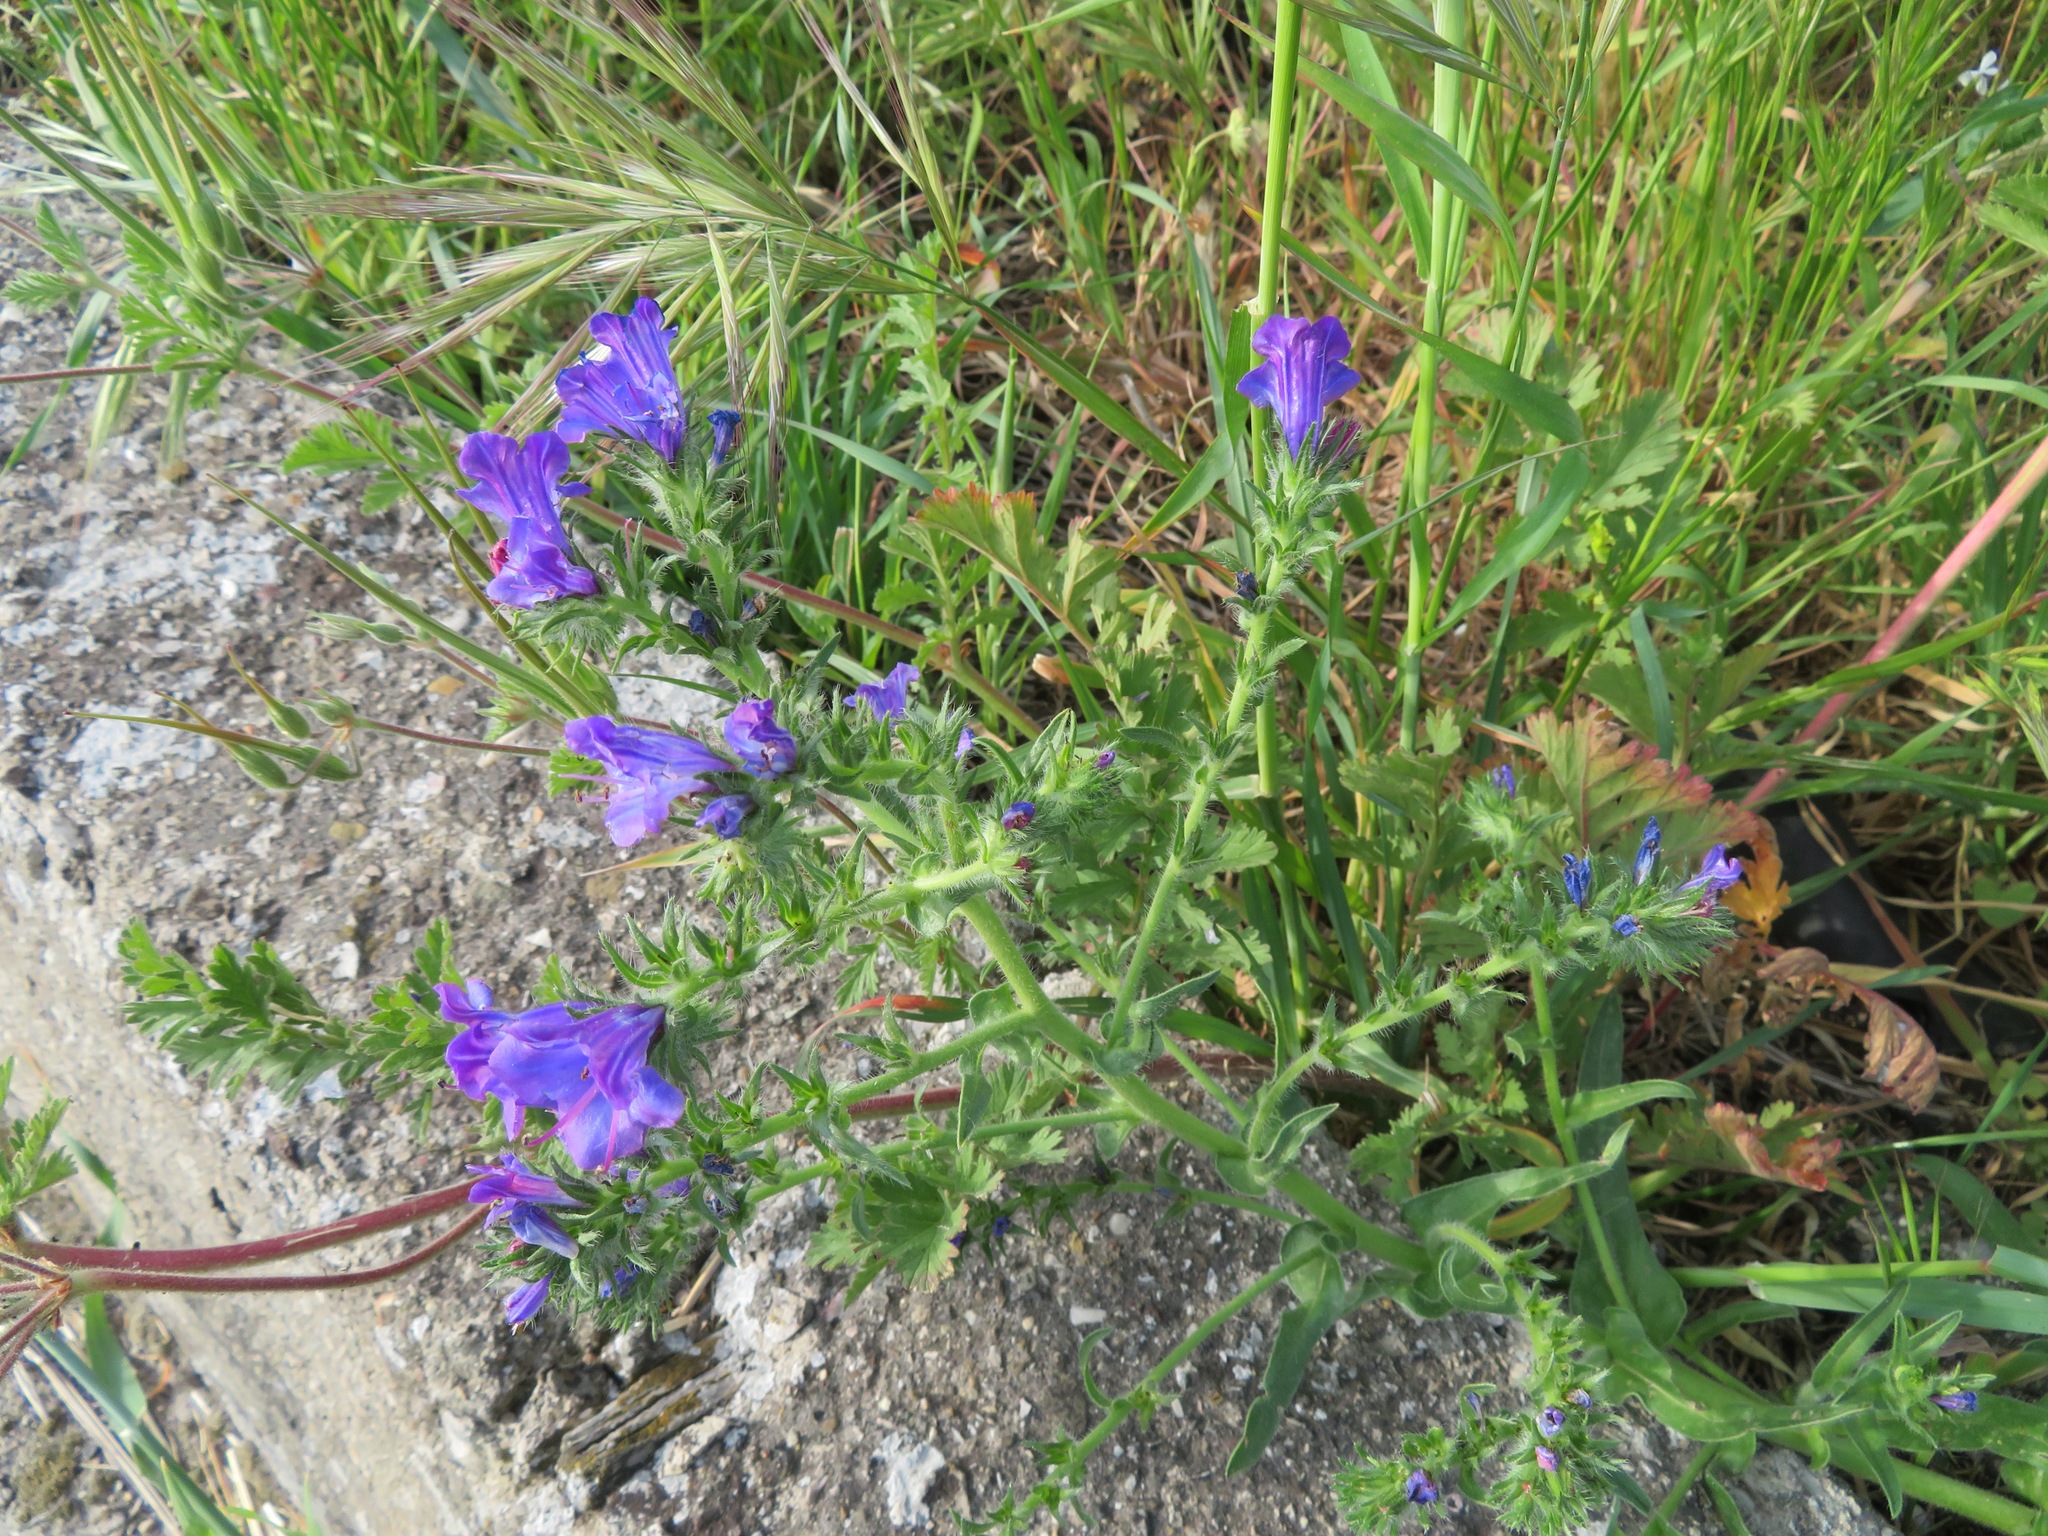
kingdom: Plantae
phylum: Tracheophyta
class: Magnoliopsida
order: Boraginales
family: Boraginaceae
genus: Echium
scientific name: Echium plantagineum
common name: Purple viper's-bugloss
